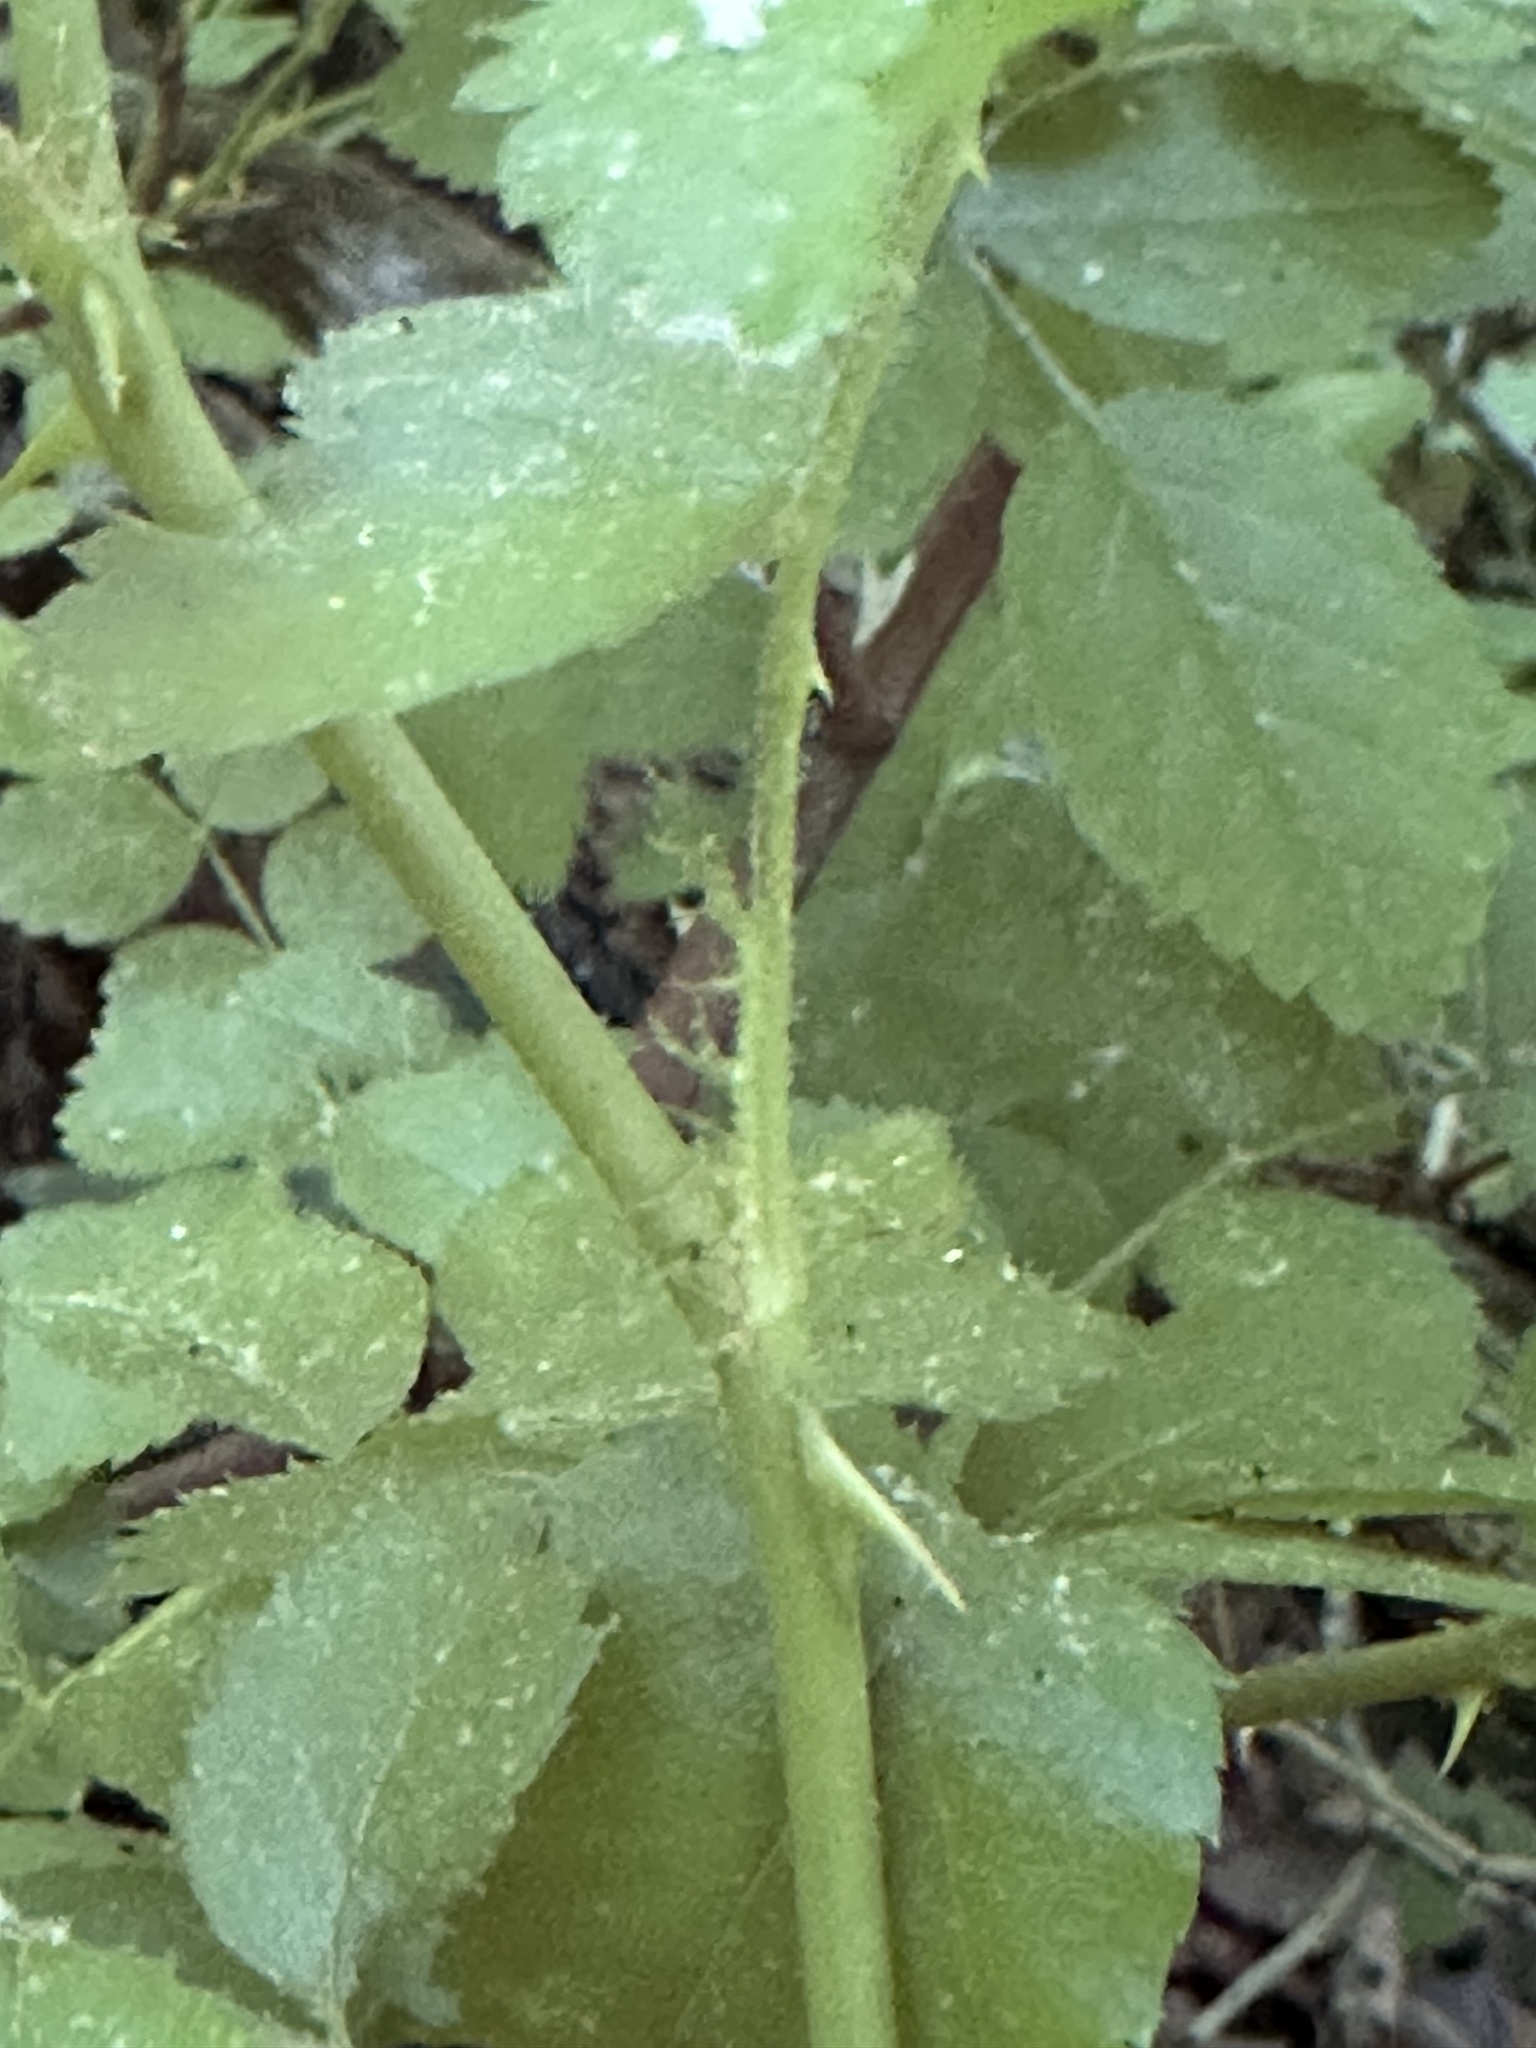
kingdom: Plantae
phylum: Tracheophyta
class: Magnoliopsida
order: Rosales
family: Rosaceae
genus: Rosa
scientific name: Rosa multiflora
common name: Multiflora rose
